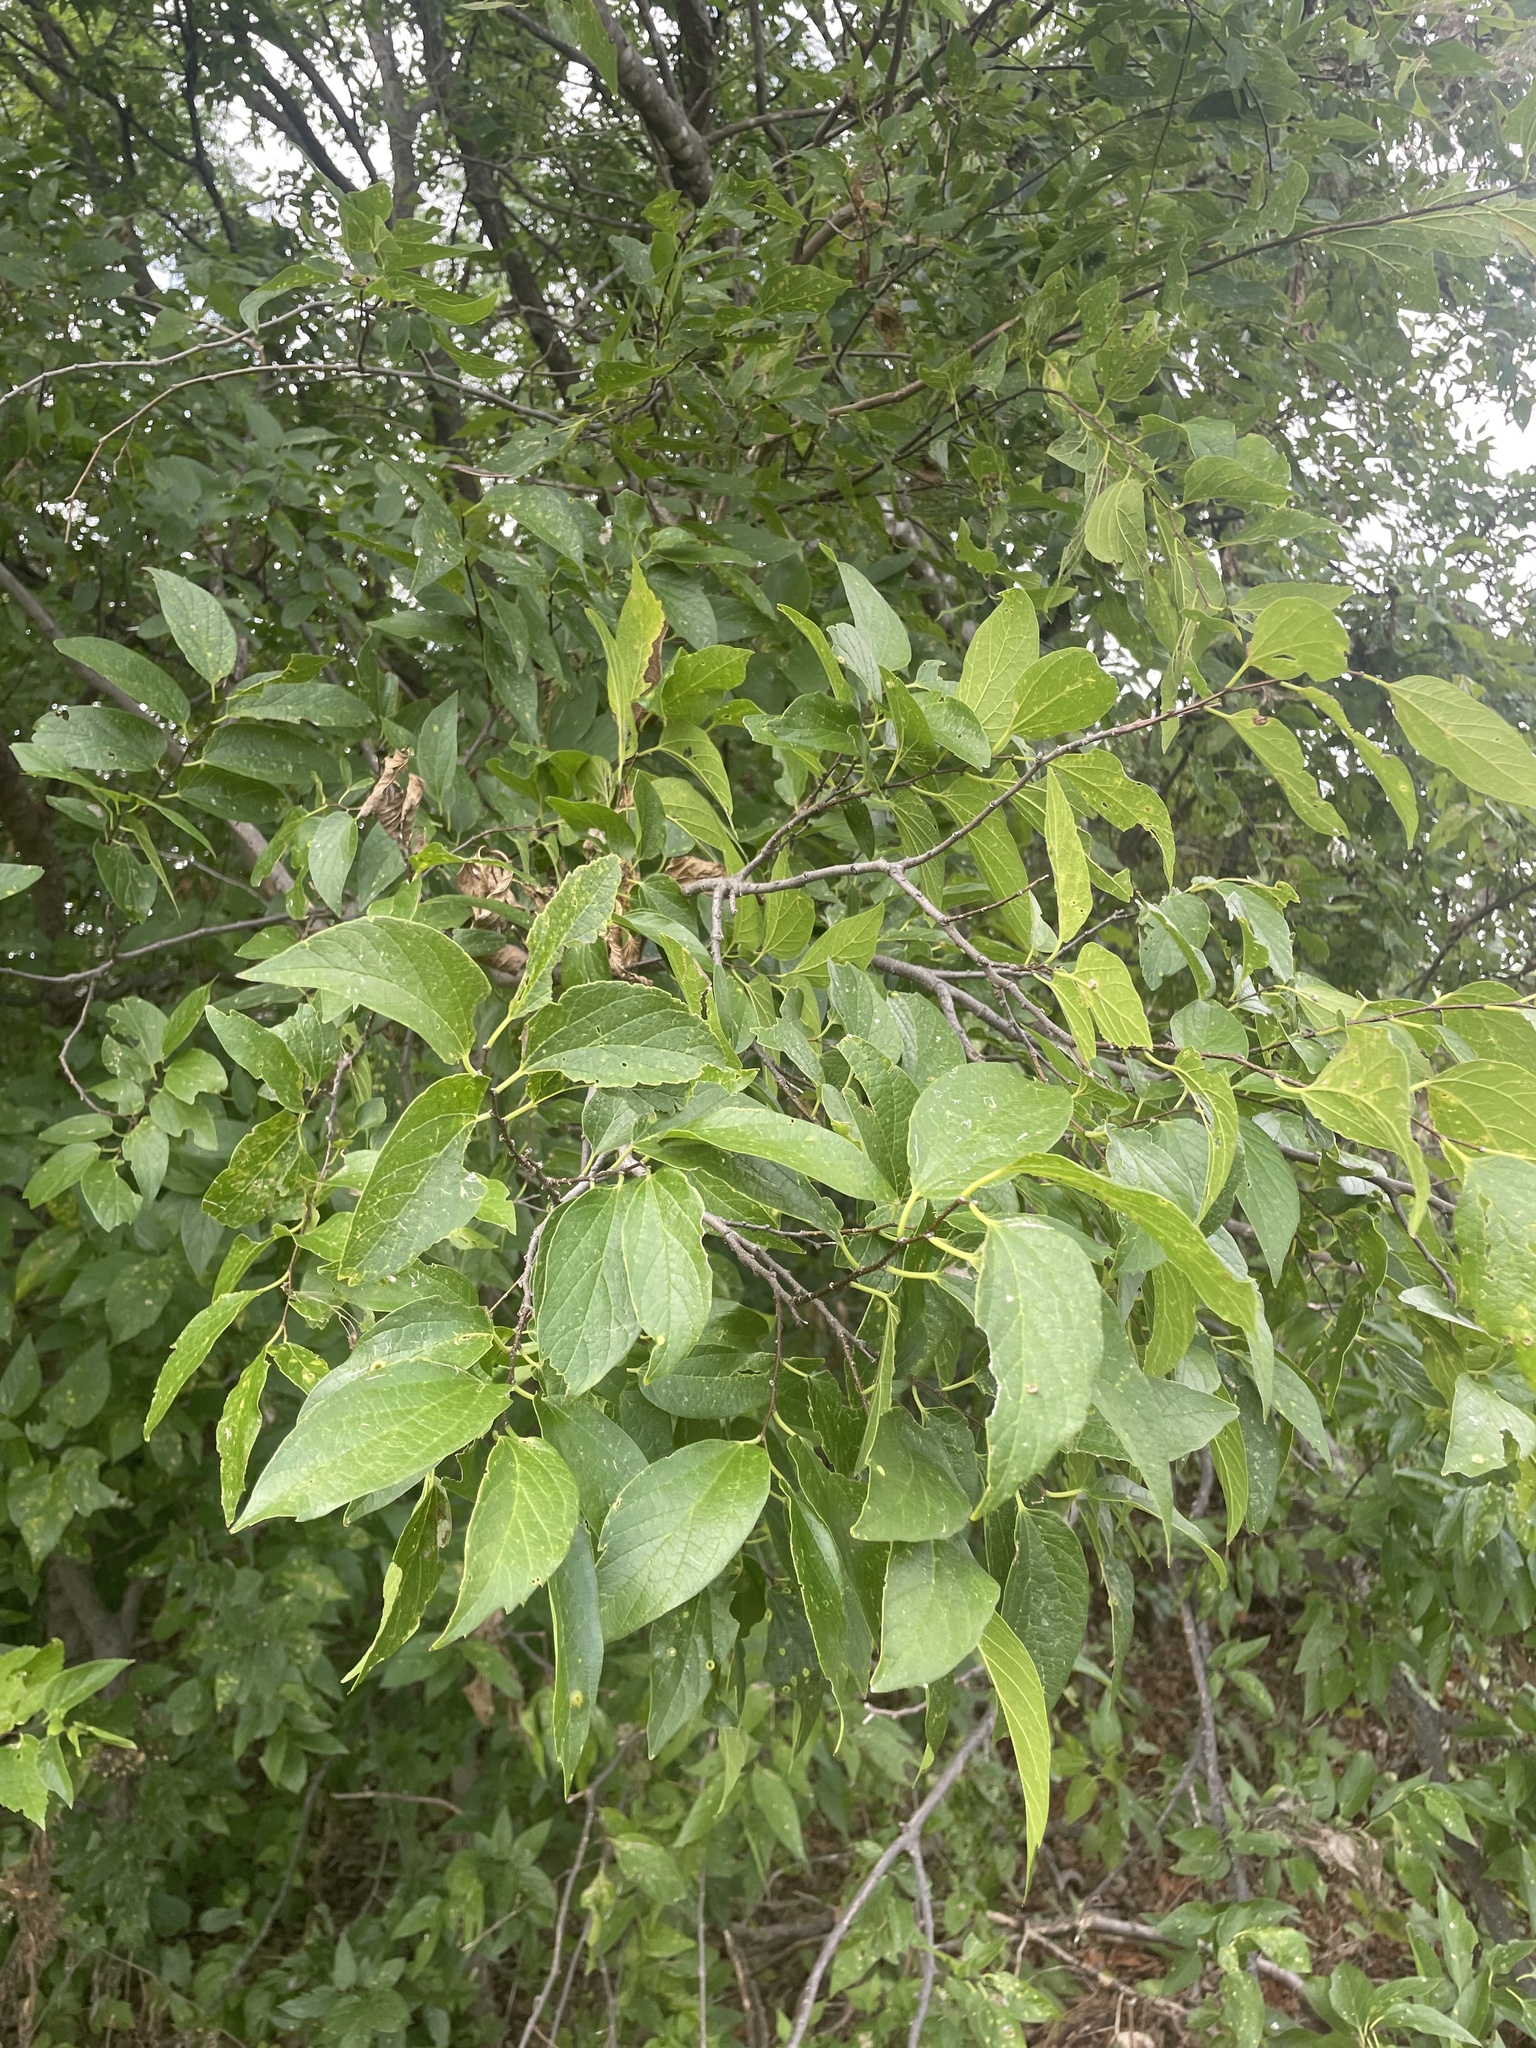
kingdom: Plantae
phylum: Tracheophyta
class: Magnoliopsida
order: Rosales
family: Cannabaceae
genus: Celtis
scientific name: Celtis laevigata
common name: Sugarberry
